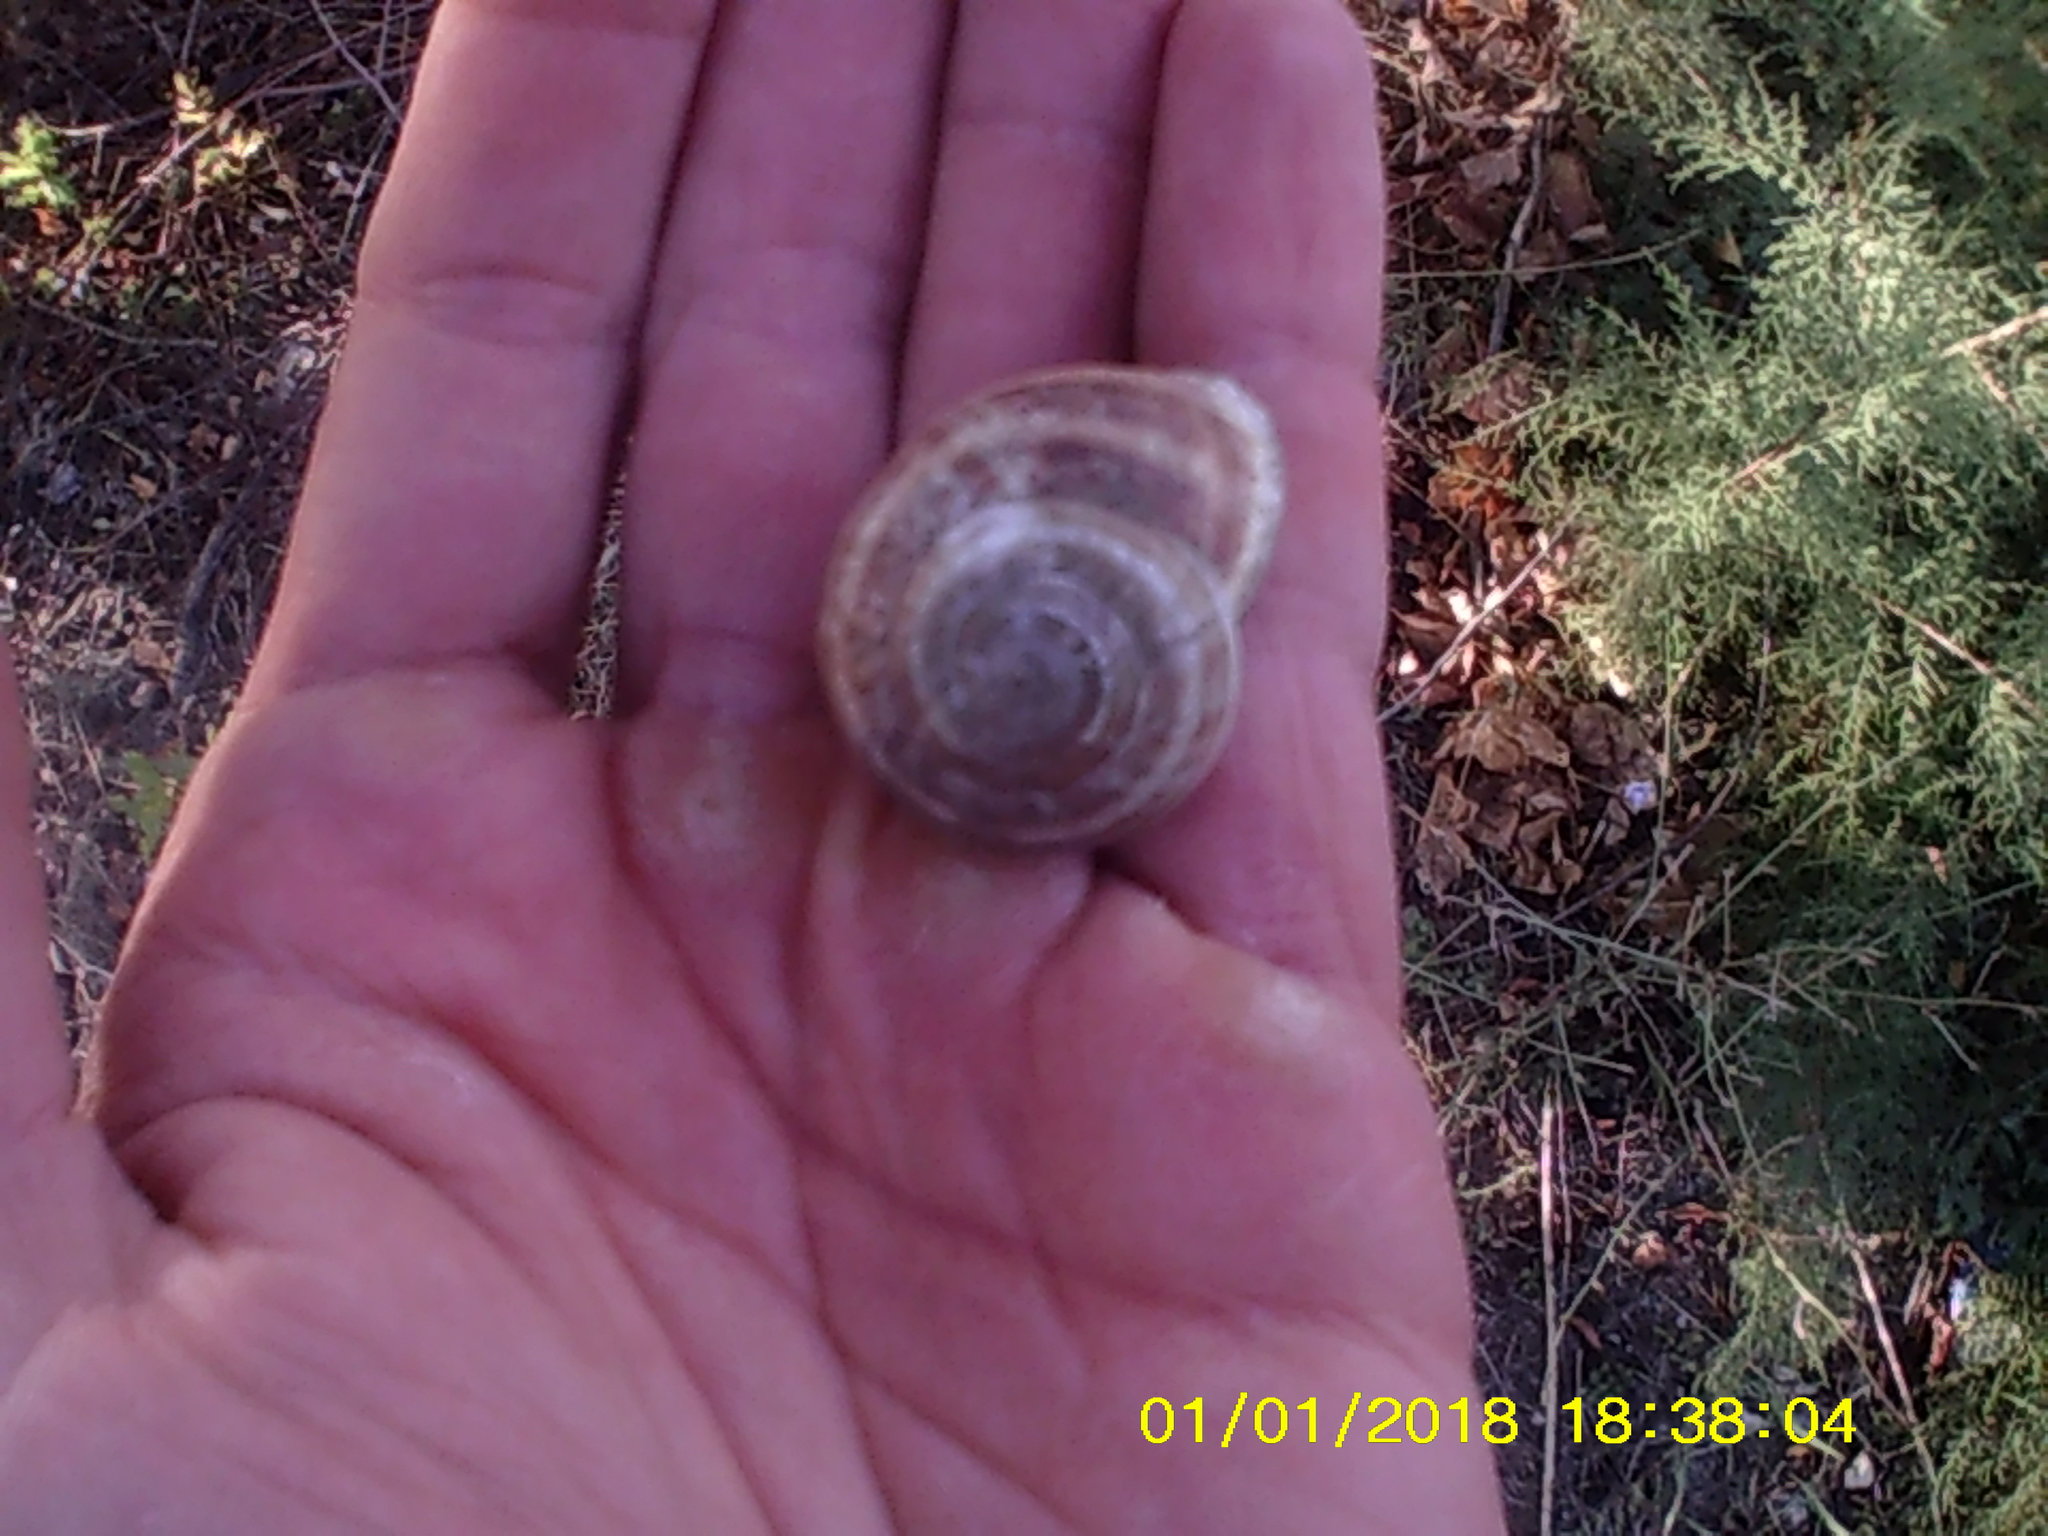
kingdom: Animalia
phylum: Mollusca
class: Gastropoda
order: Stylommatophora
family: Helicidae
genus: Eobania
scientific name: Eobania vermiculata
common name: Chocolateband snail
